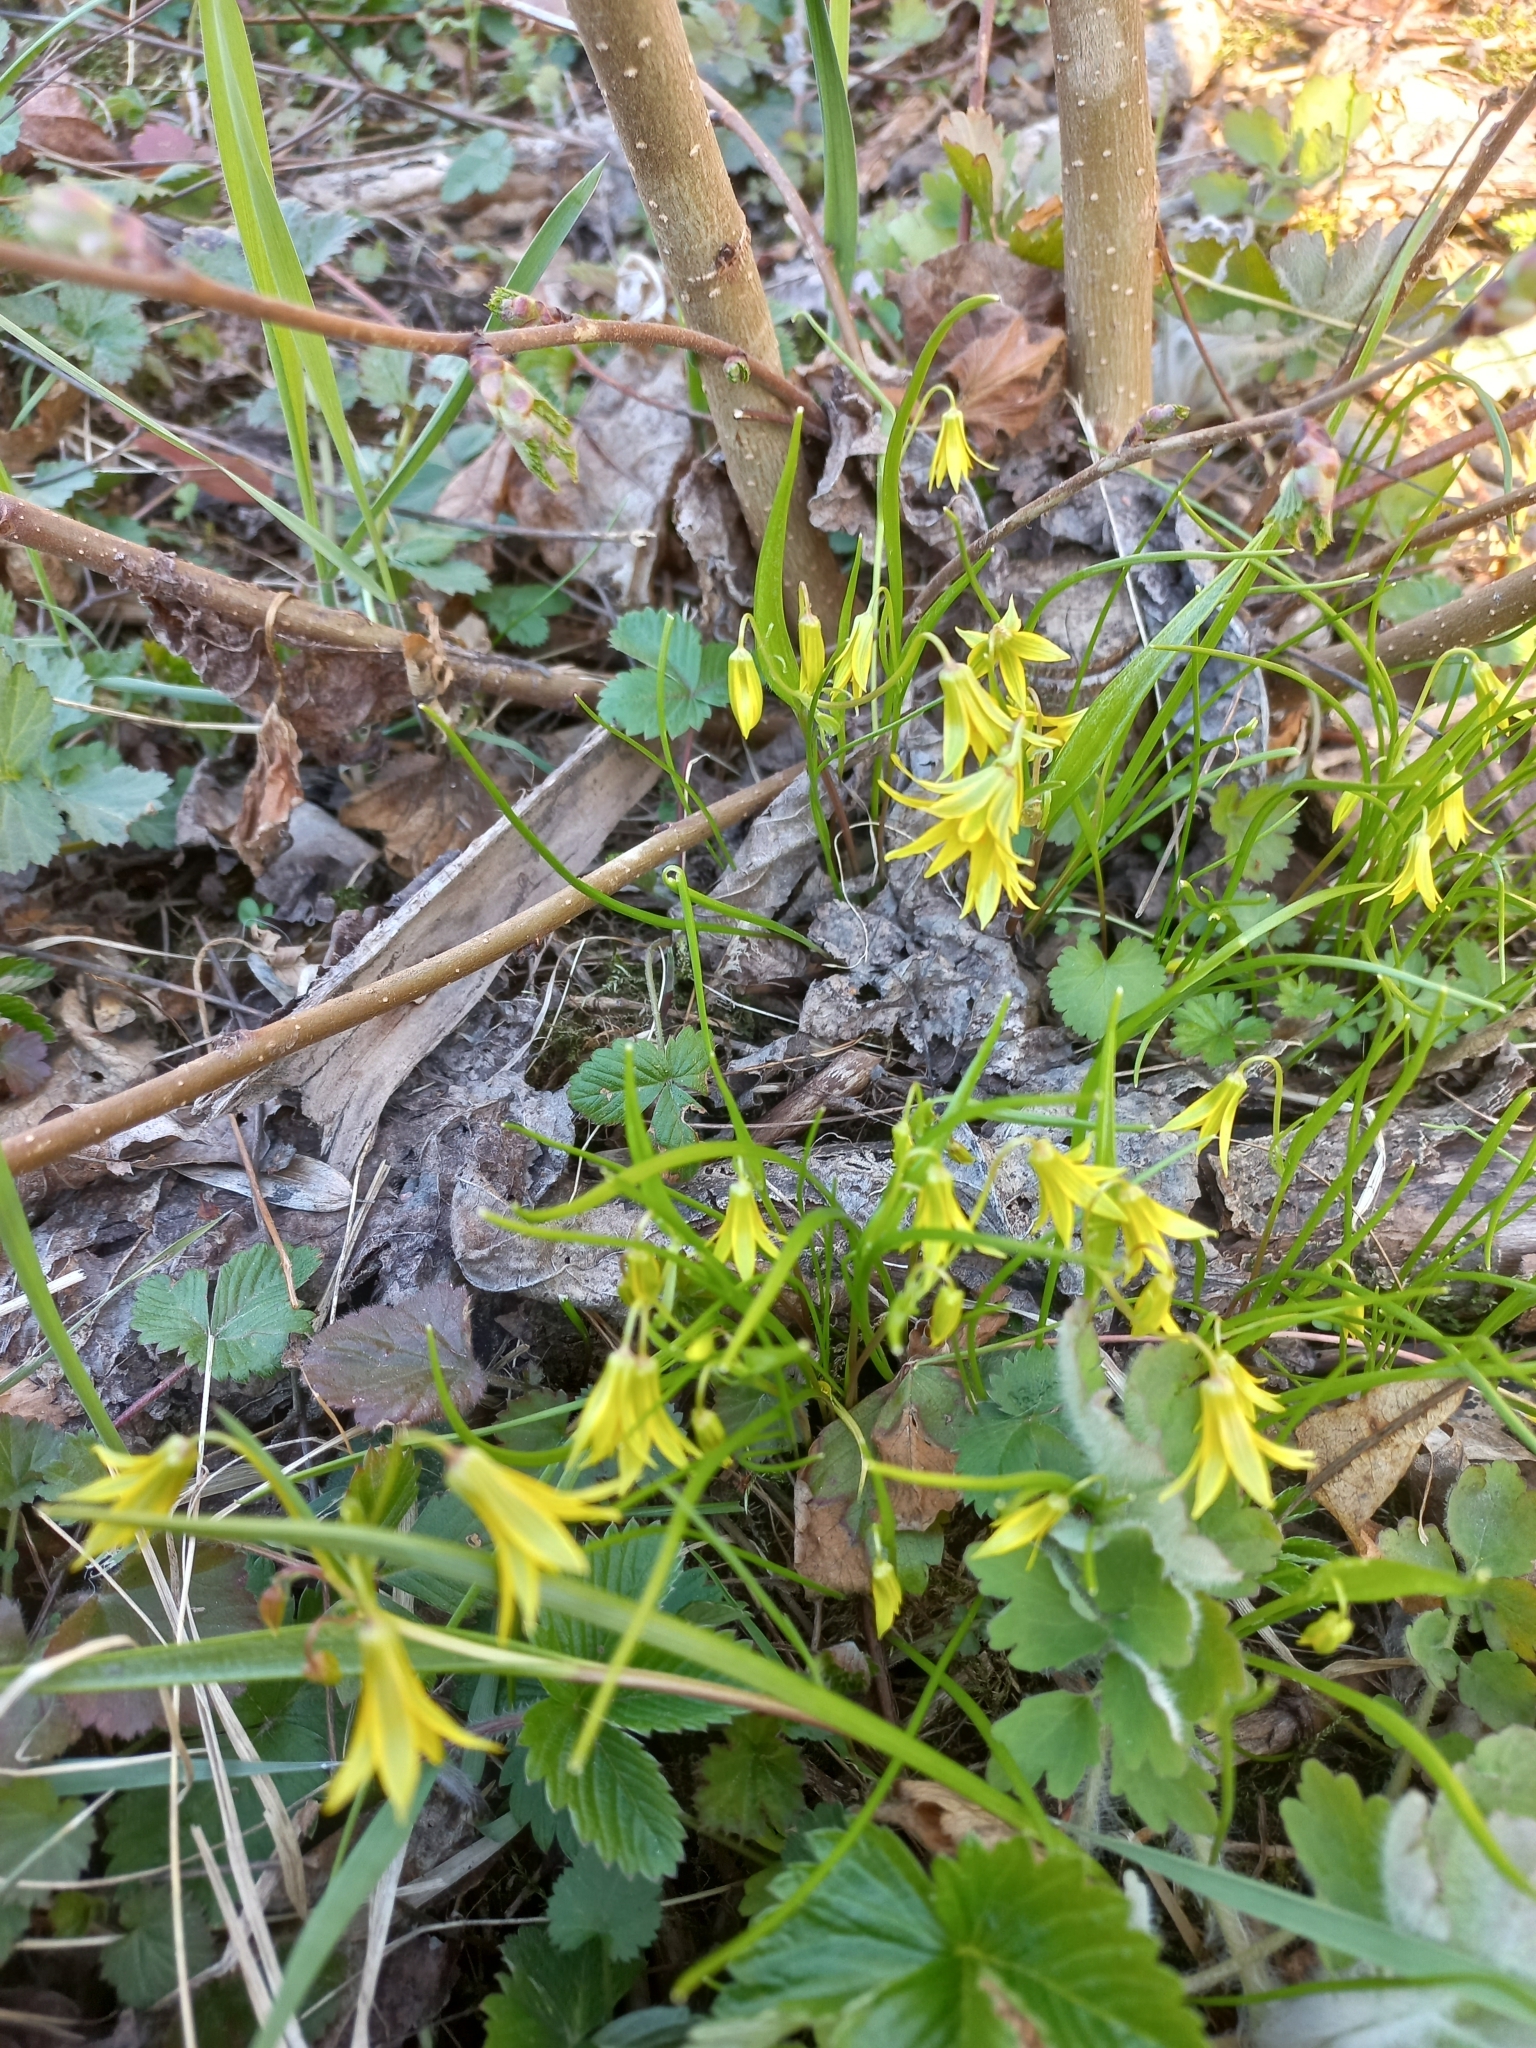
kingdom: Plantae
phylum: Tracheophyta
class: Liliopsida
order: Liliales
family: Liliaceae
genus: Gagea
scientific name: Gagea minima
